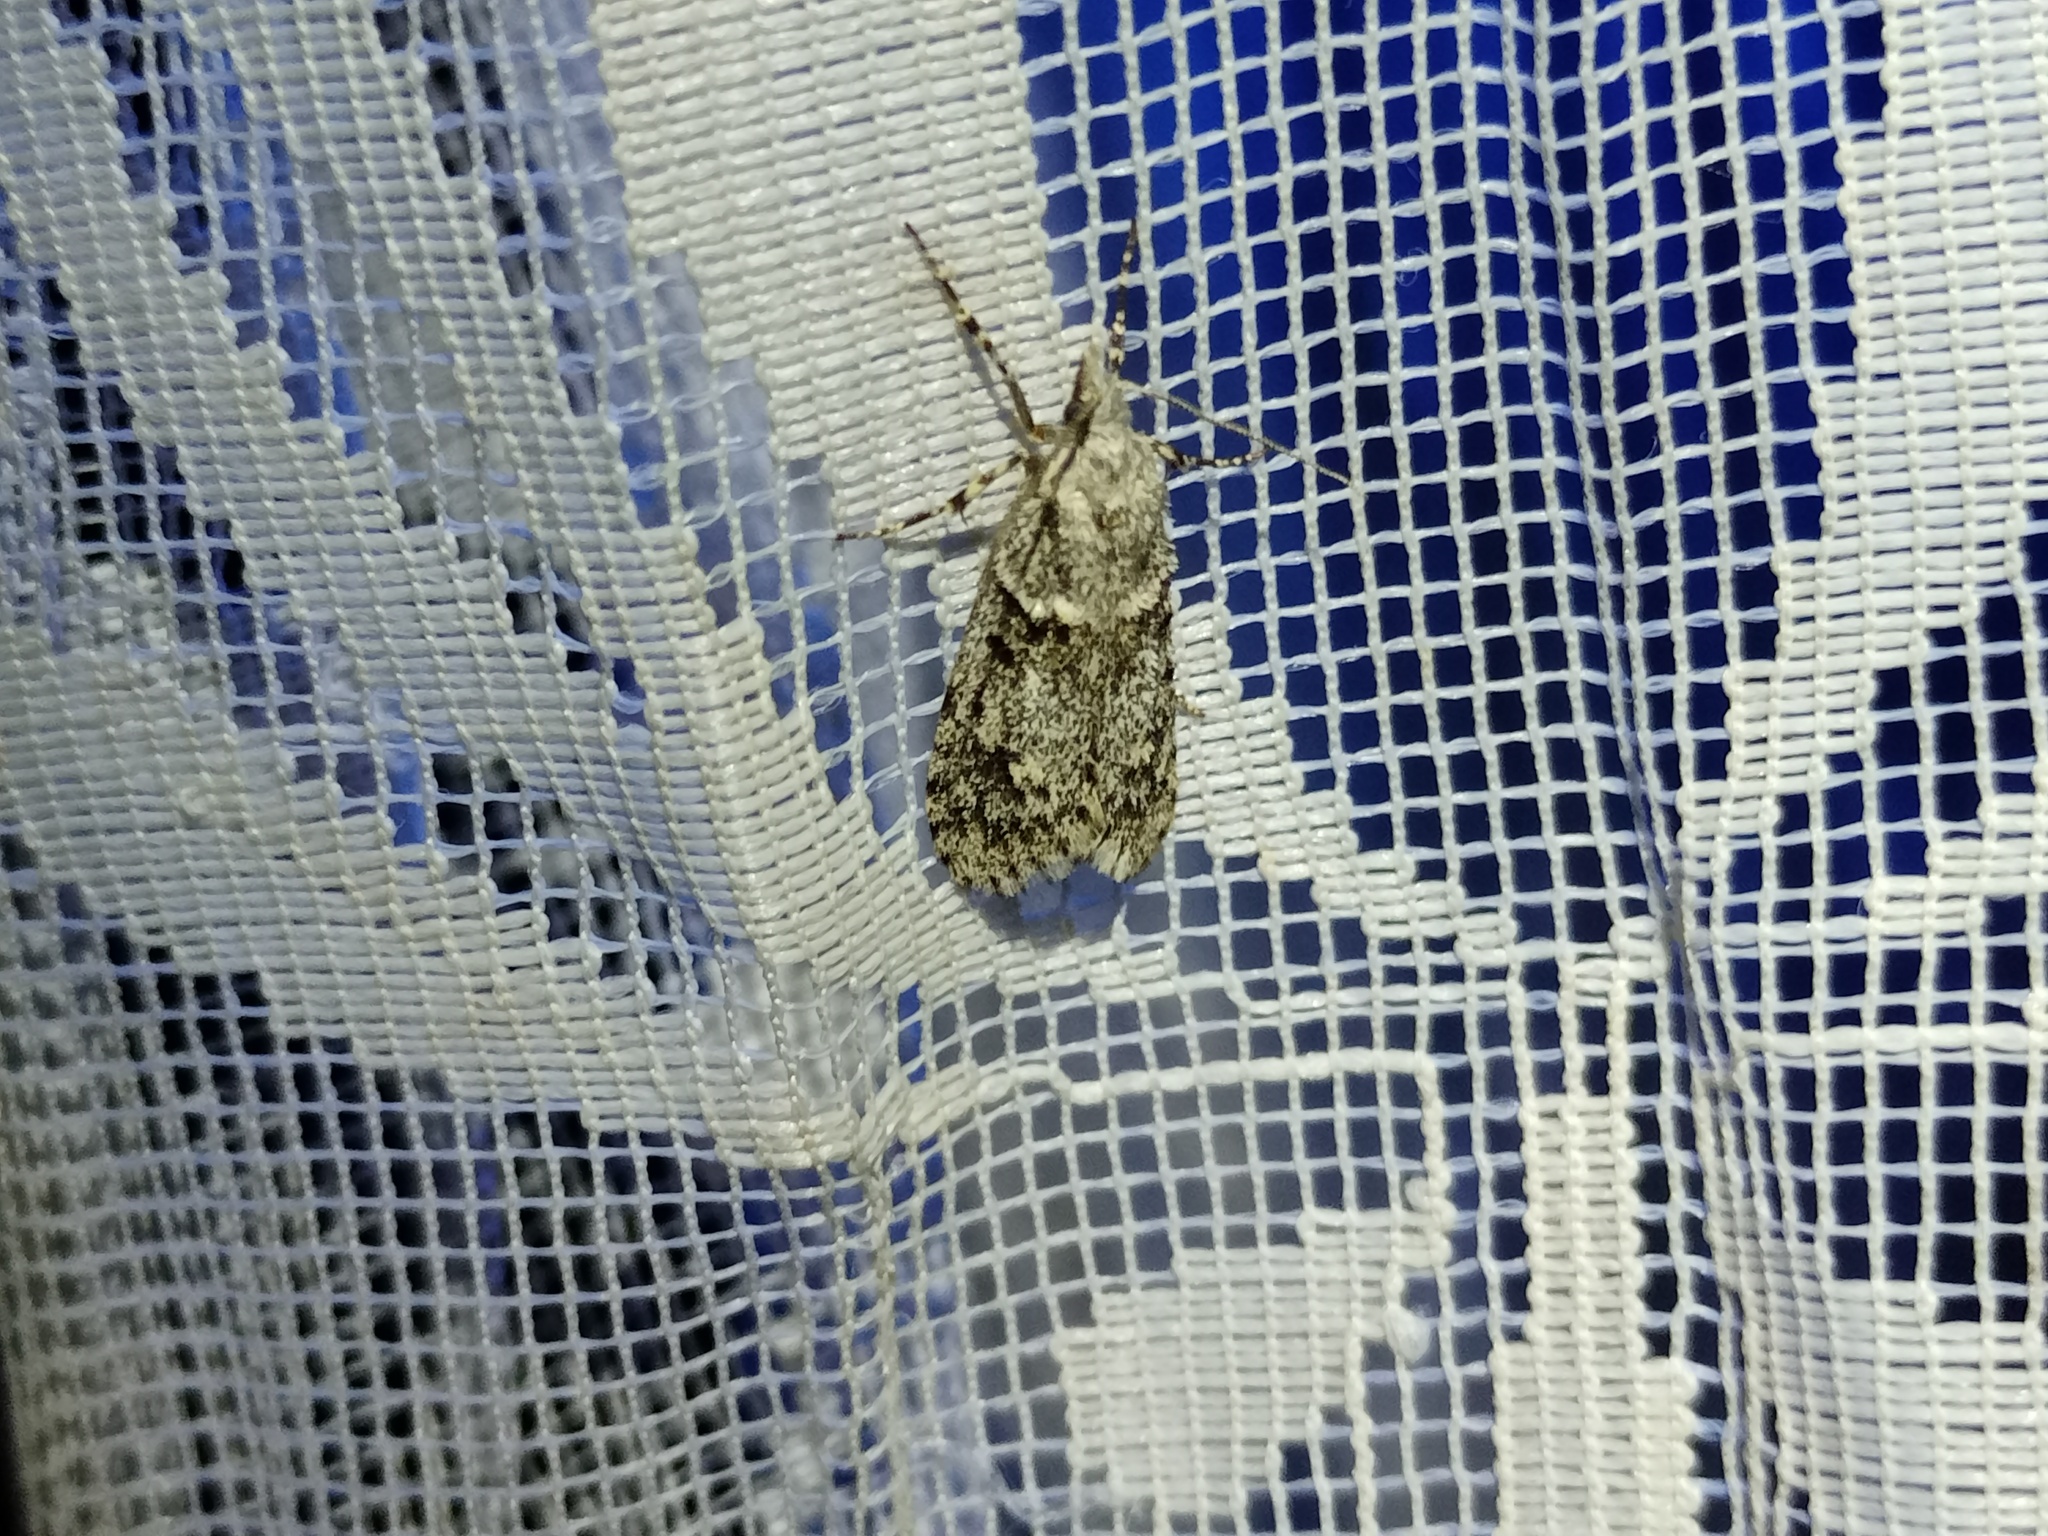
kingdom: Animalia
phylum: Arthropoda
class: Insecta
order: Lepidoptera
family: Lypusidae
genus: Diurnea
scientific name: Diurnea fagella
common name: March tubic
